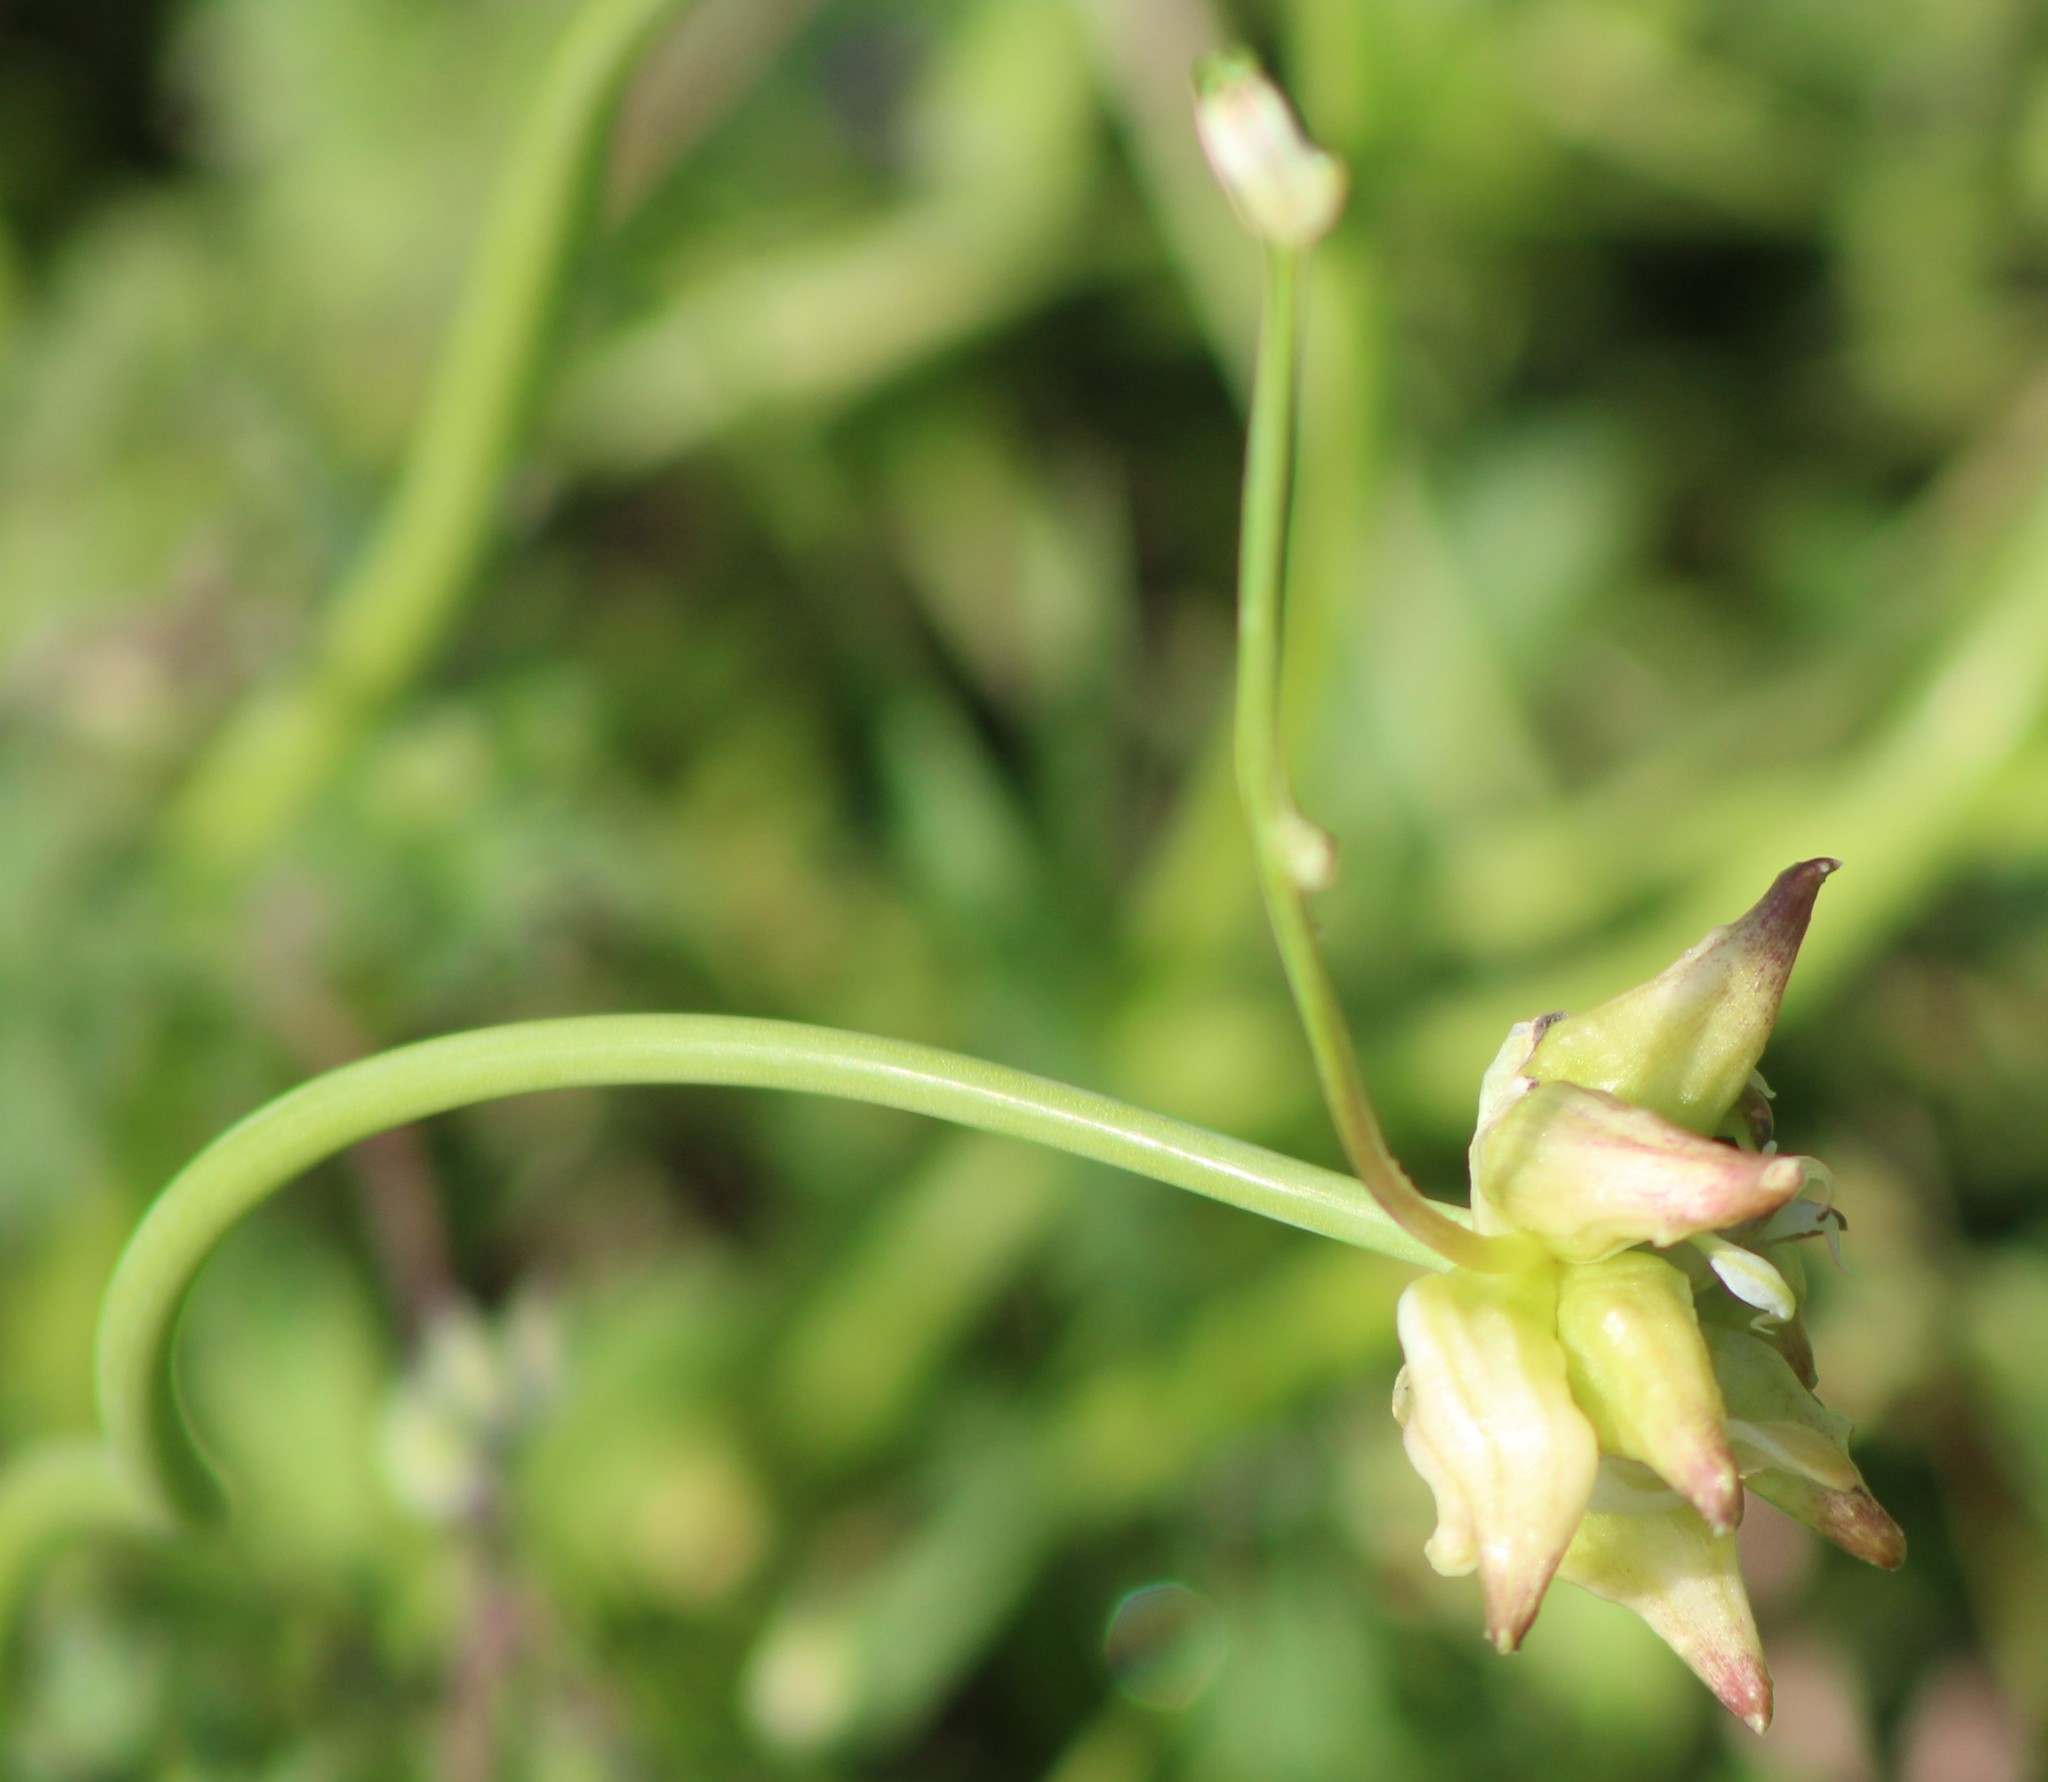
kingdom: Plantae
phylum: Tracheophyta
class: Liliopsida
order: Asparagales
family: Amaryllidaceae
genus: Allium
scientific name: Allium canadense
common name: Meadow garlic
